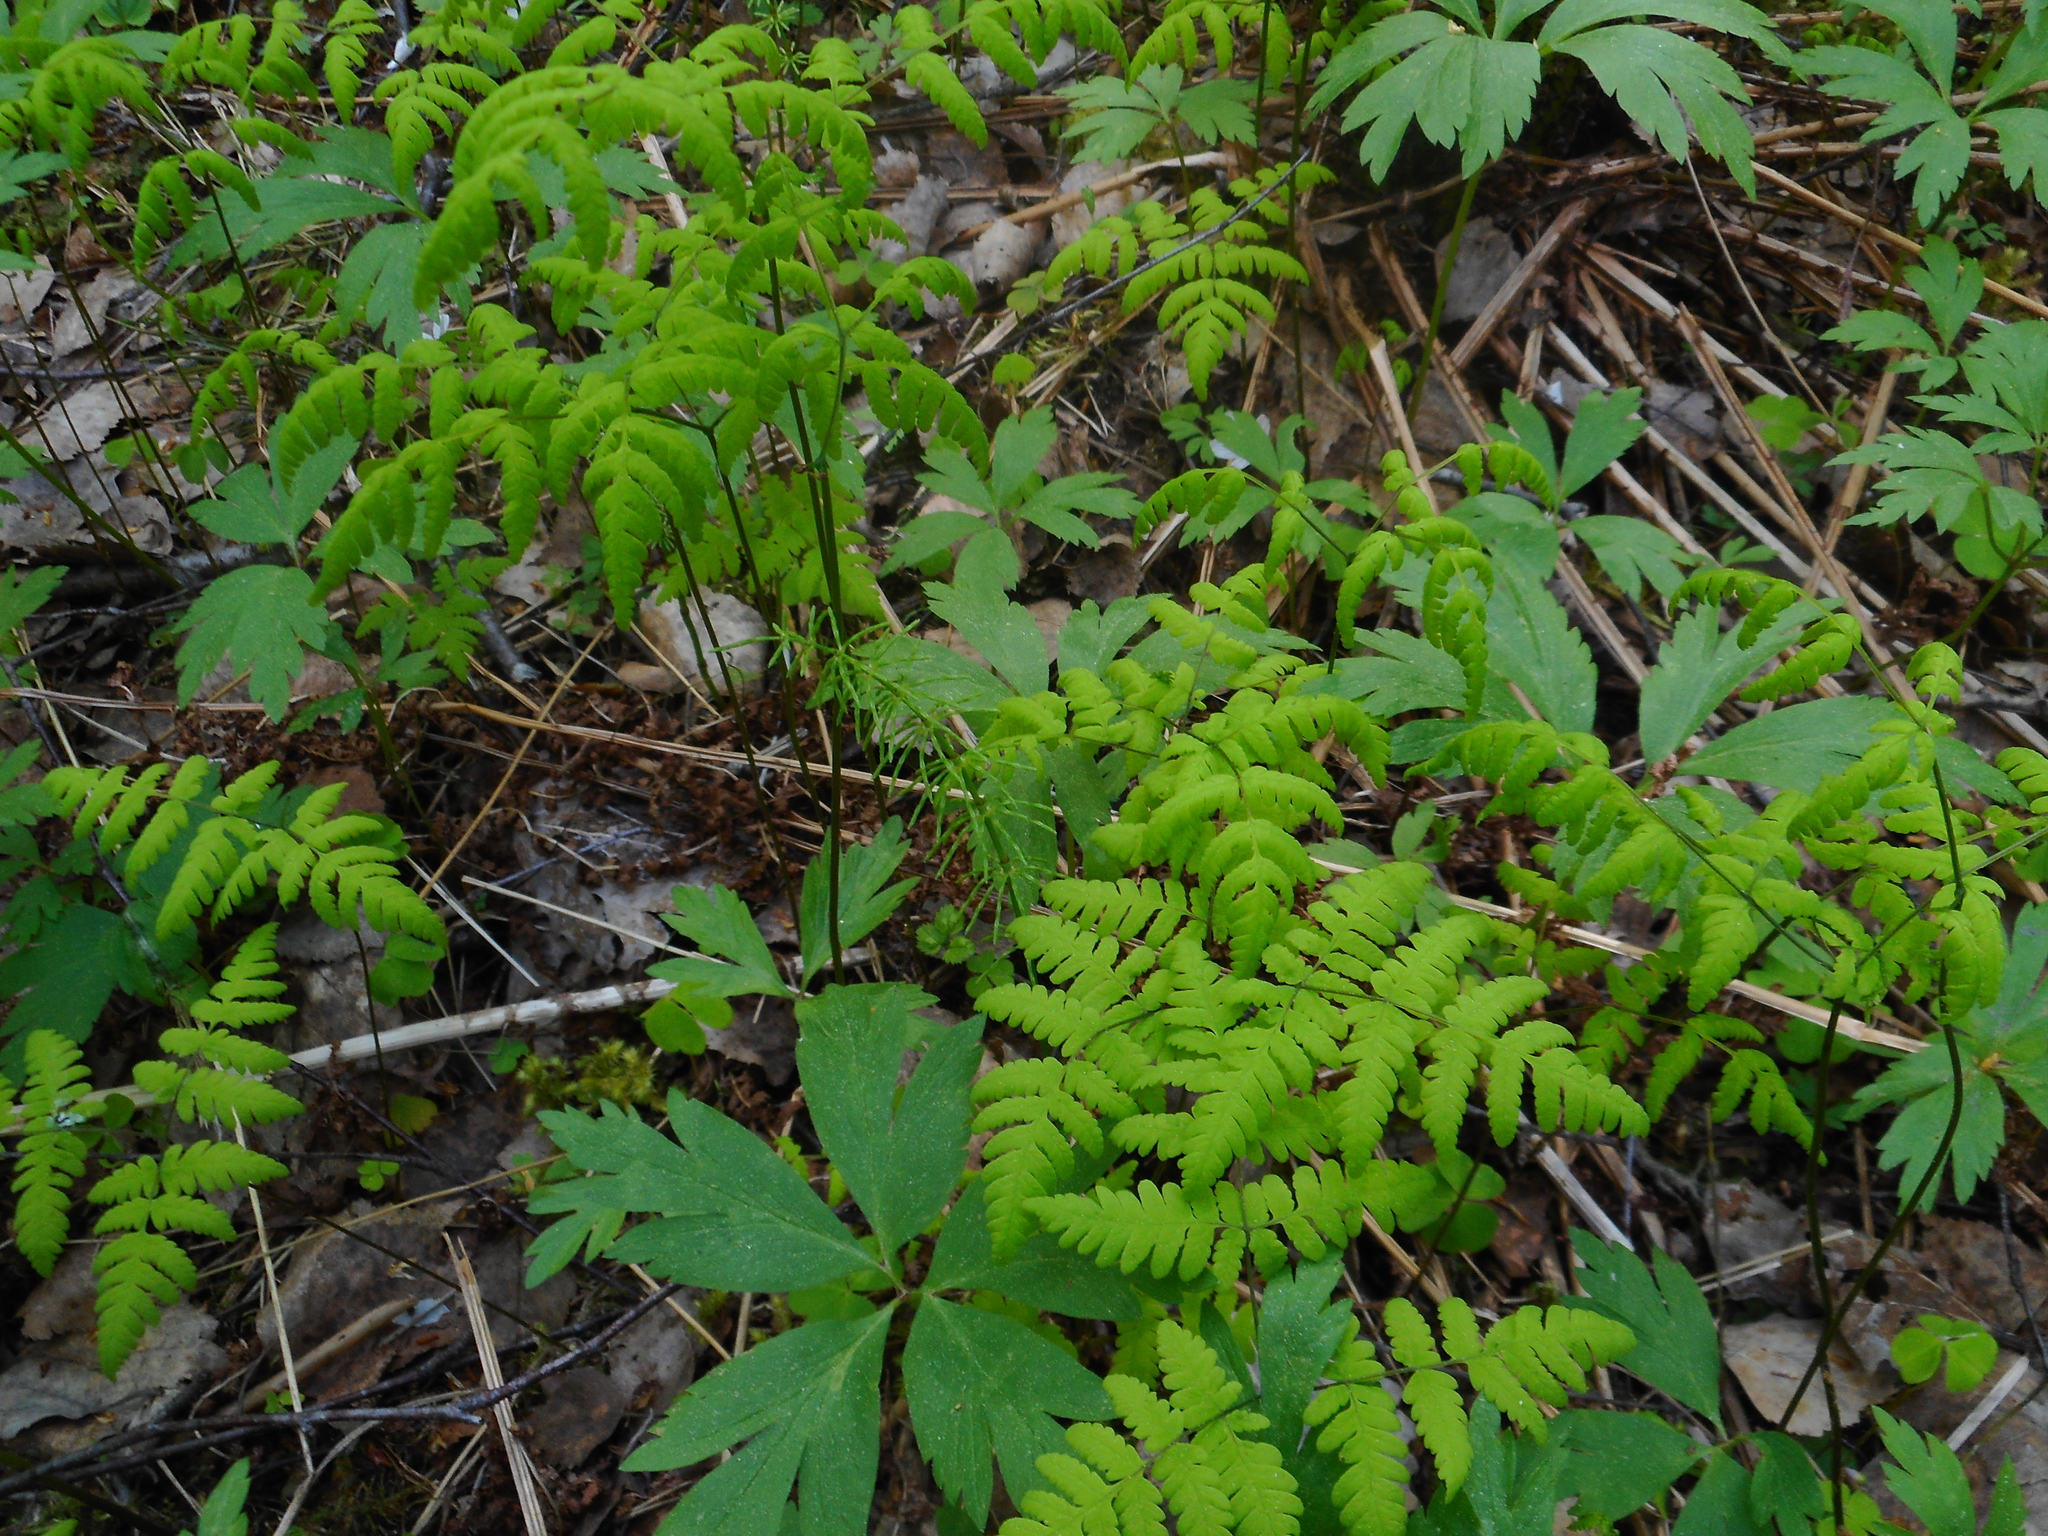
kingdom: Plantae
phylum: Tracheophyta
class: Polypodiopsida
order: Polypodiales
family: Cystopteridaceae
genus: Gymnocarpium
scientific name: Gymnocarpium dryopteris
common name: Oak fern
